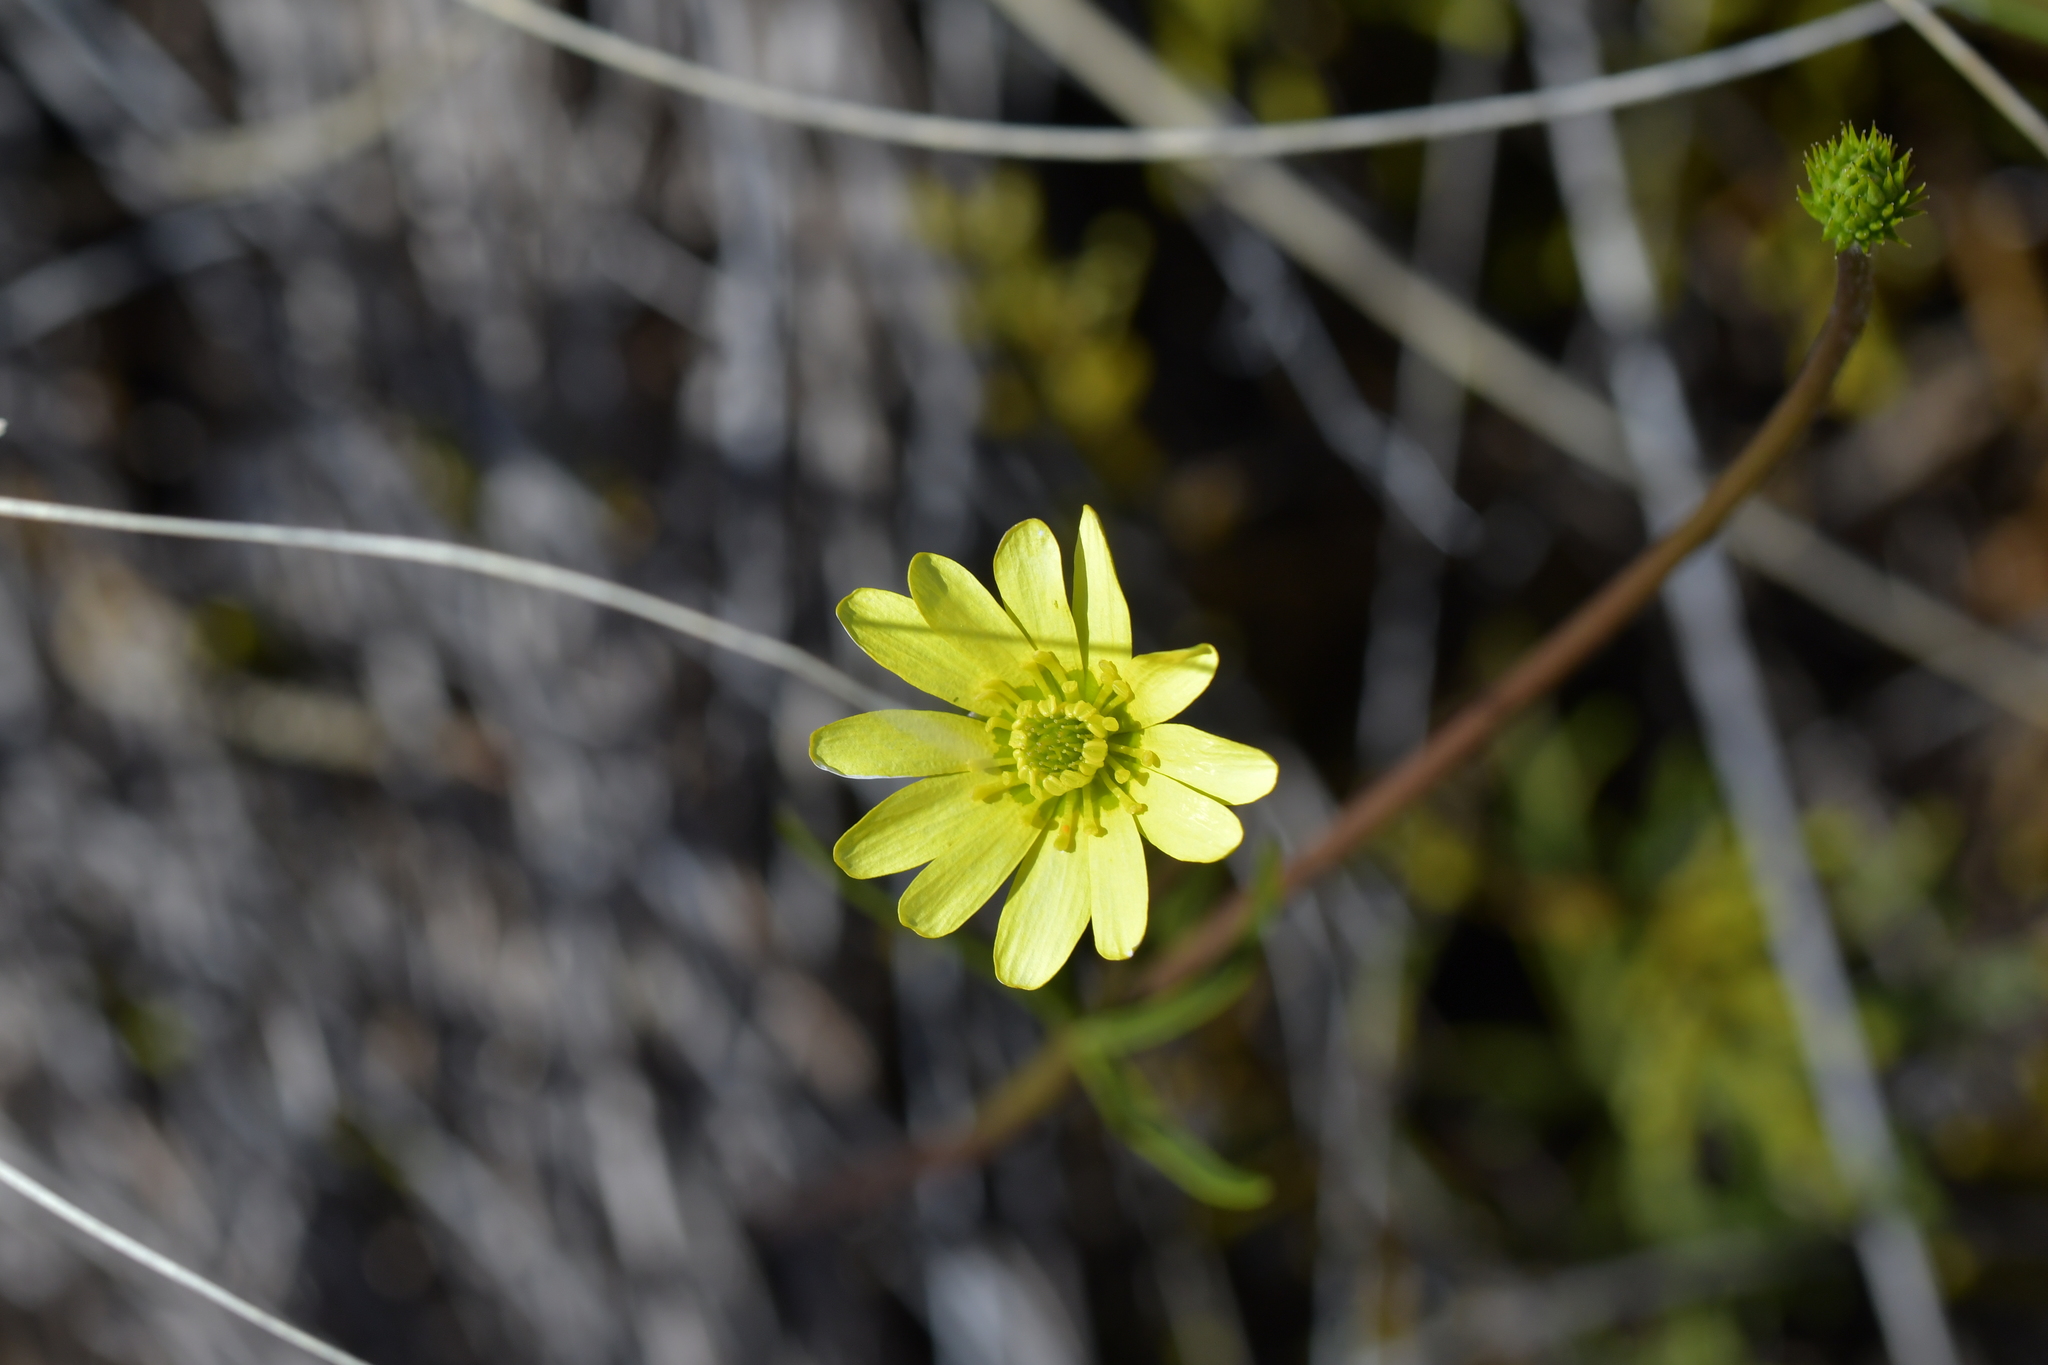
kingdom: Plantae
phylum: Tracheophyta
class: Magnoliopsida
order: Ranunculales
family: Ranunculaceae
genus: Ranunculus
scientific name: Ranunculus verticillatus
